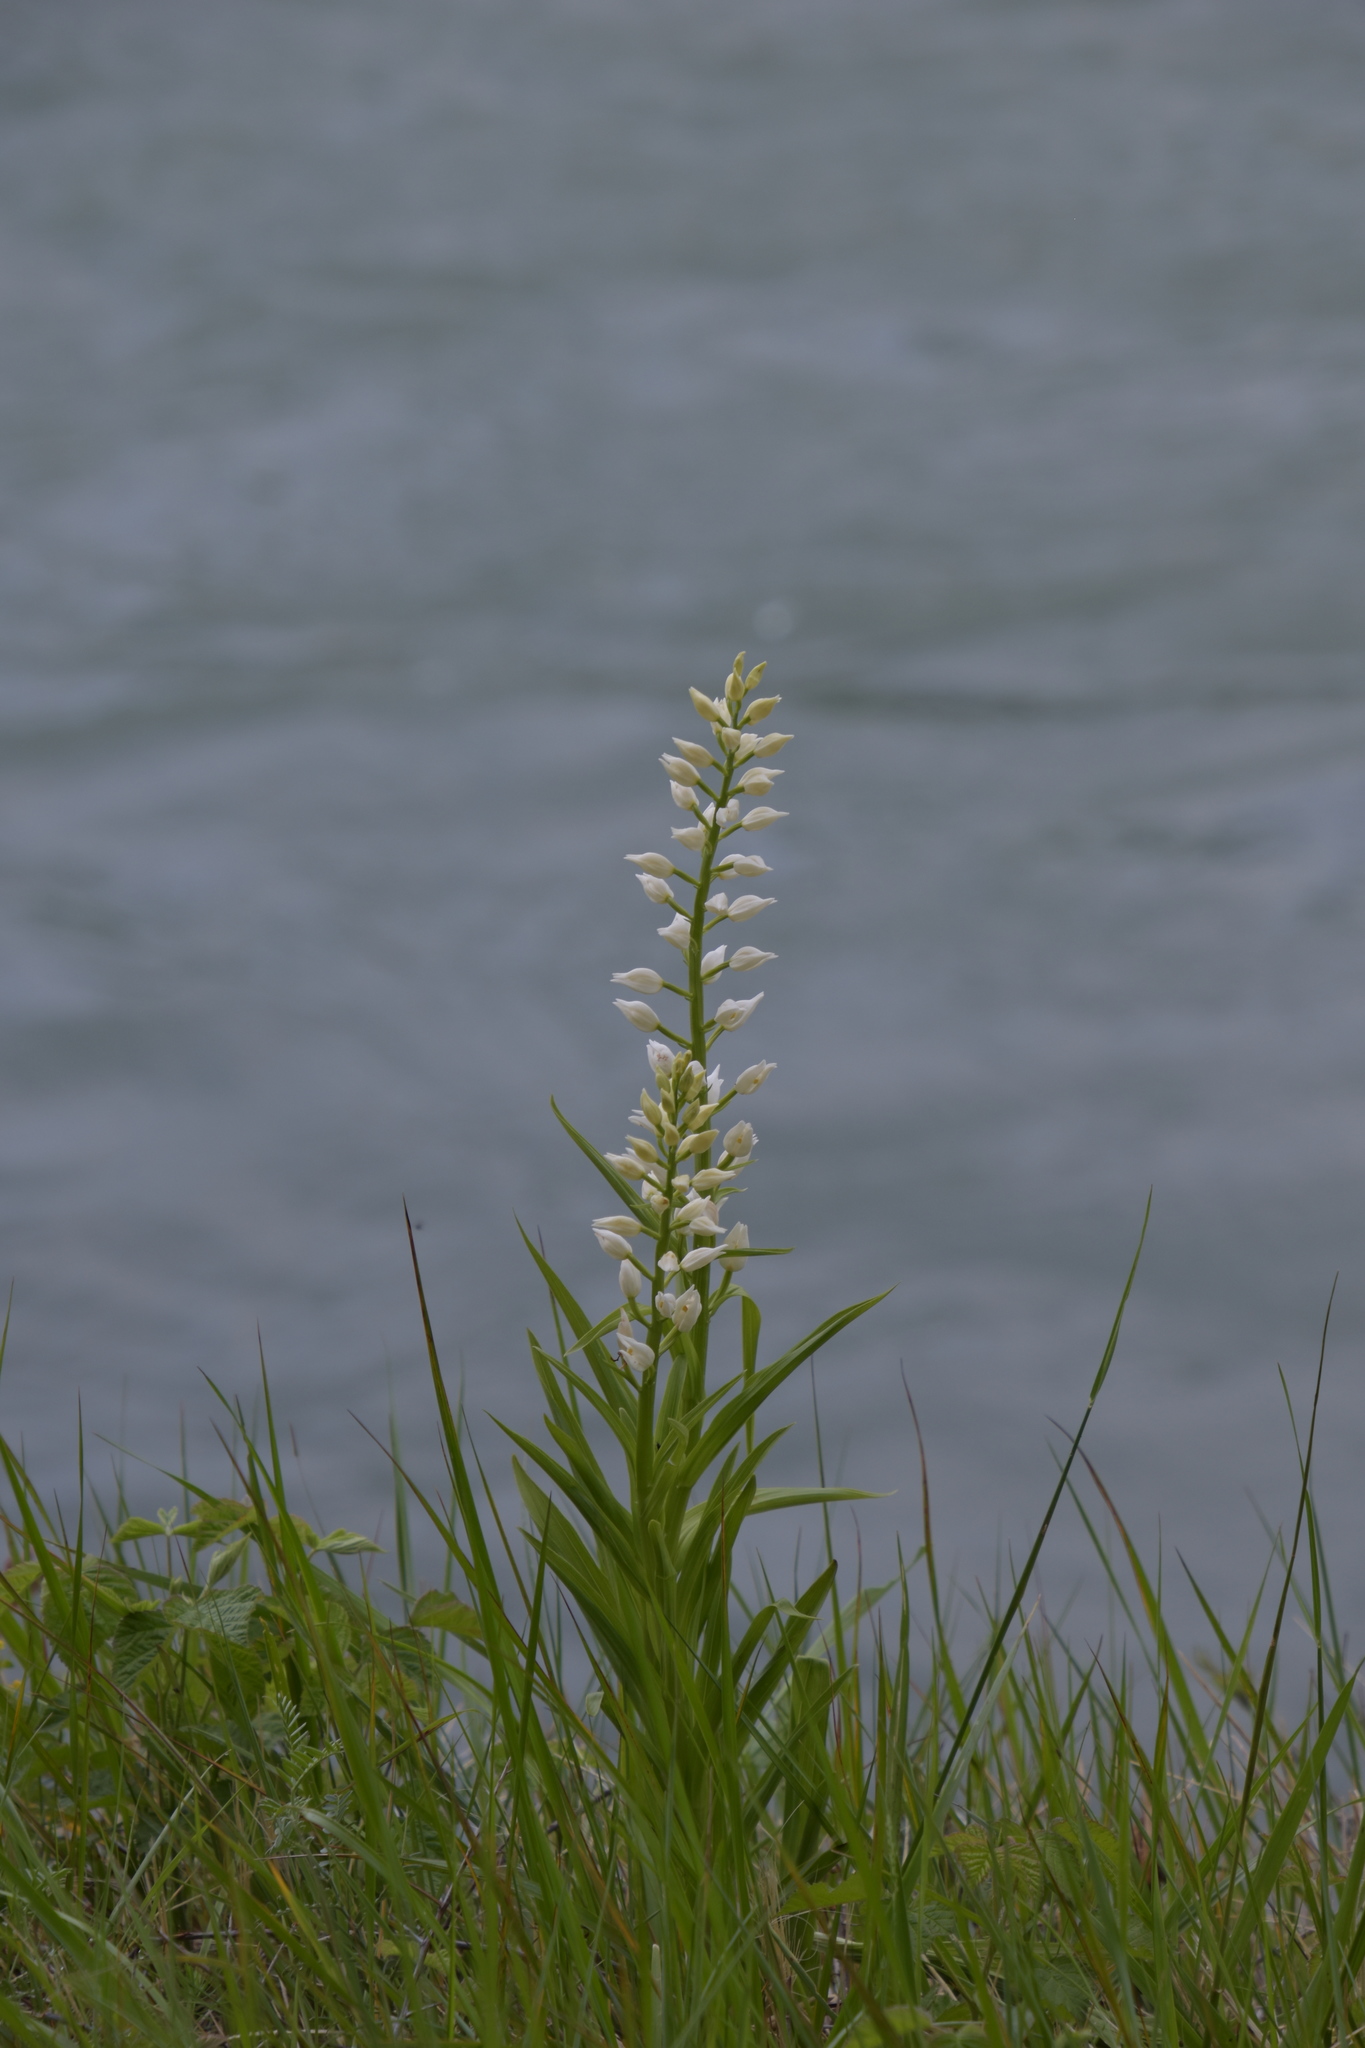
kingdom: Plantae
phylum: Tracheophyta
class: Liliopsida
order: Asparagales
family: Orchidaceae
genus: Cephalanthera
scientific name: Cephalanthera longifolia
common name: Narrow-leaved helleborine
